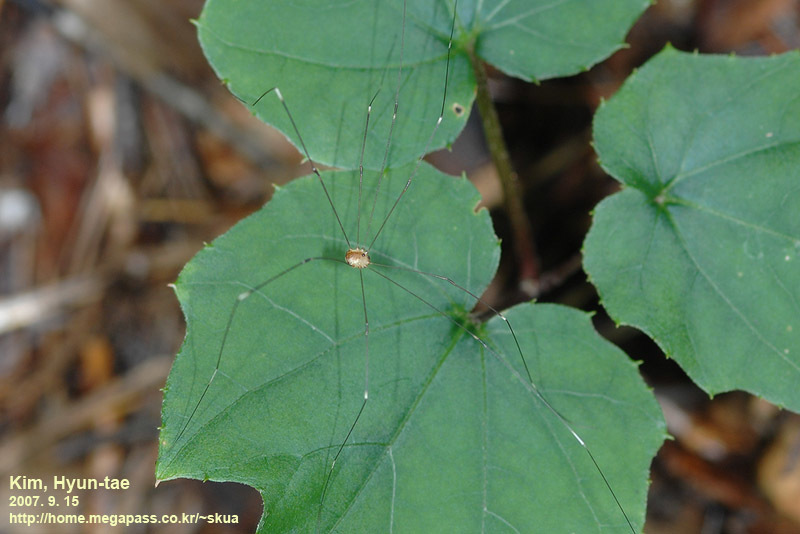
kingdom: Animalia
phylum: Arthropoda
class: Arachnida
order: Opiliones
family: Sclerosomatidae
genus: Leiobunum
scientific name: Leiobunum japonicum
